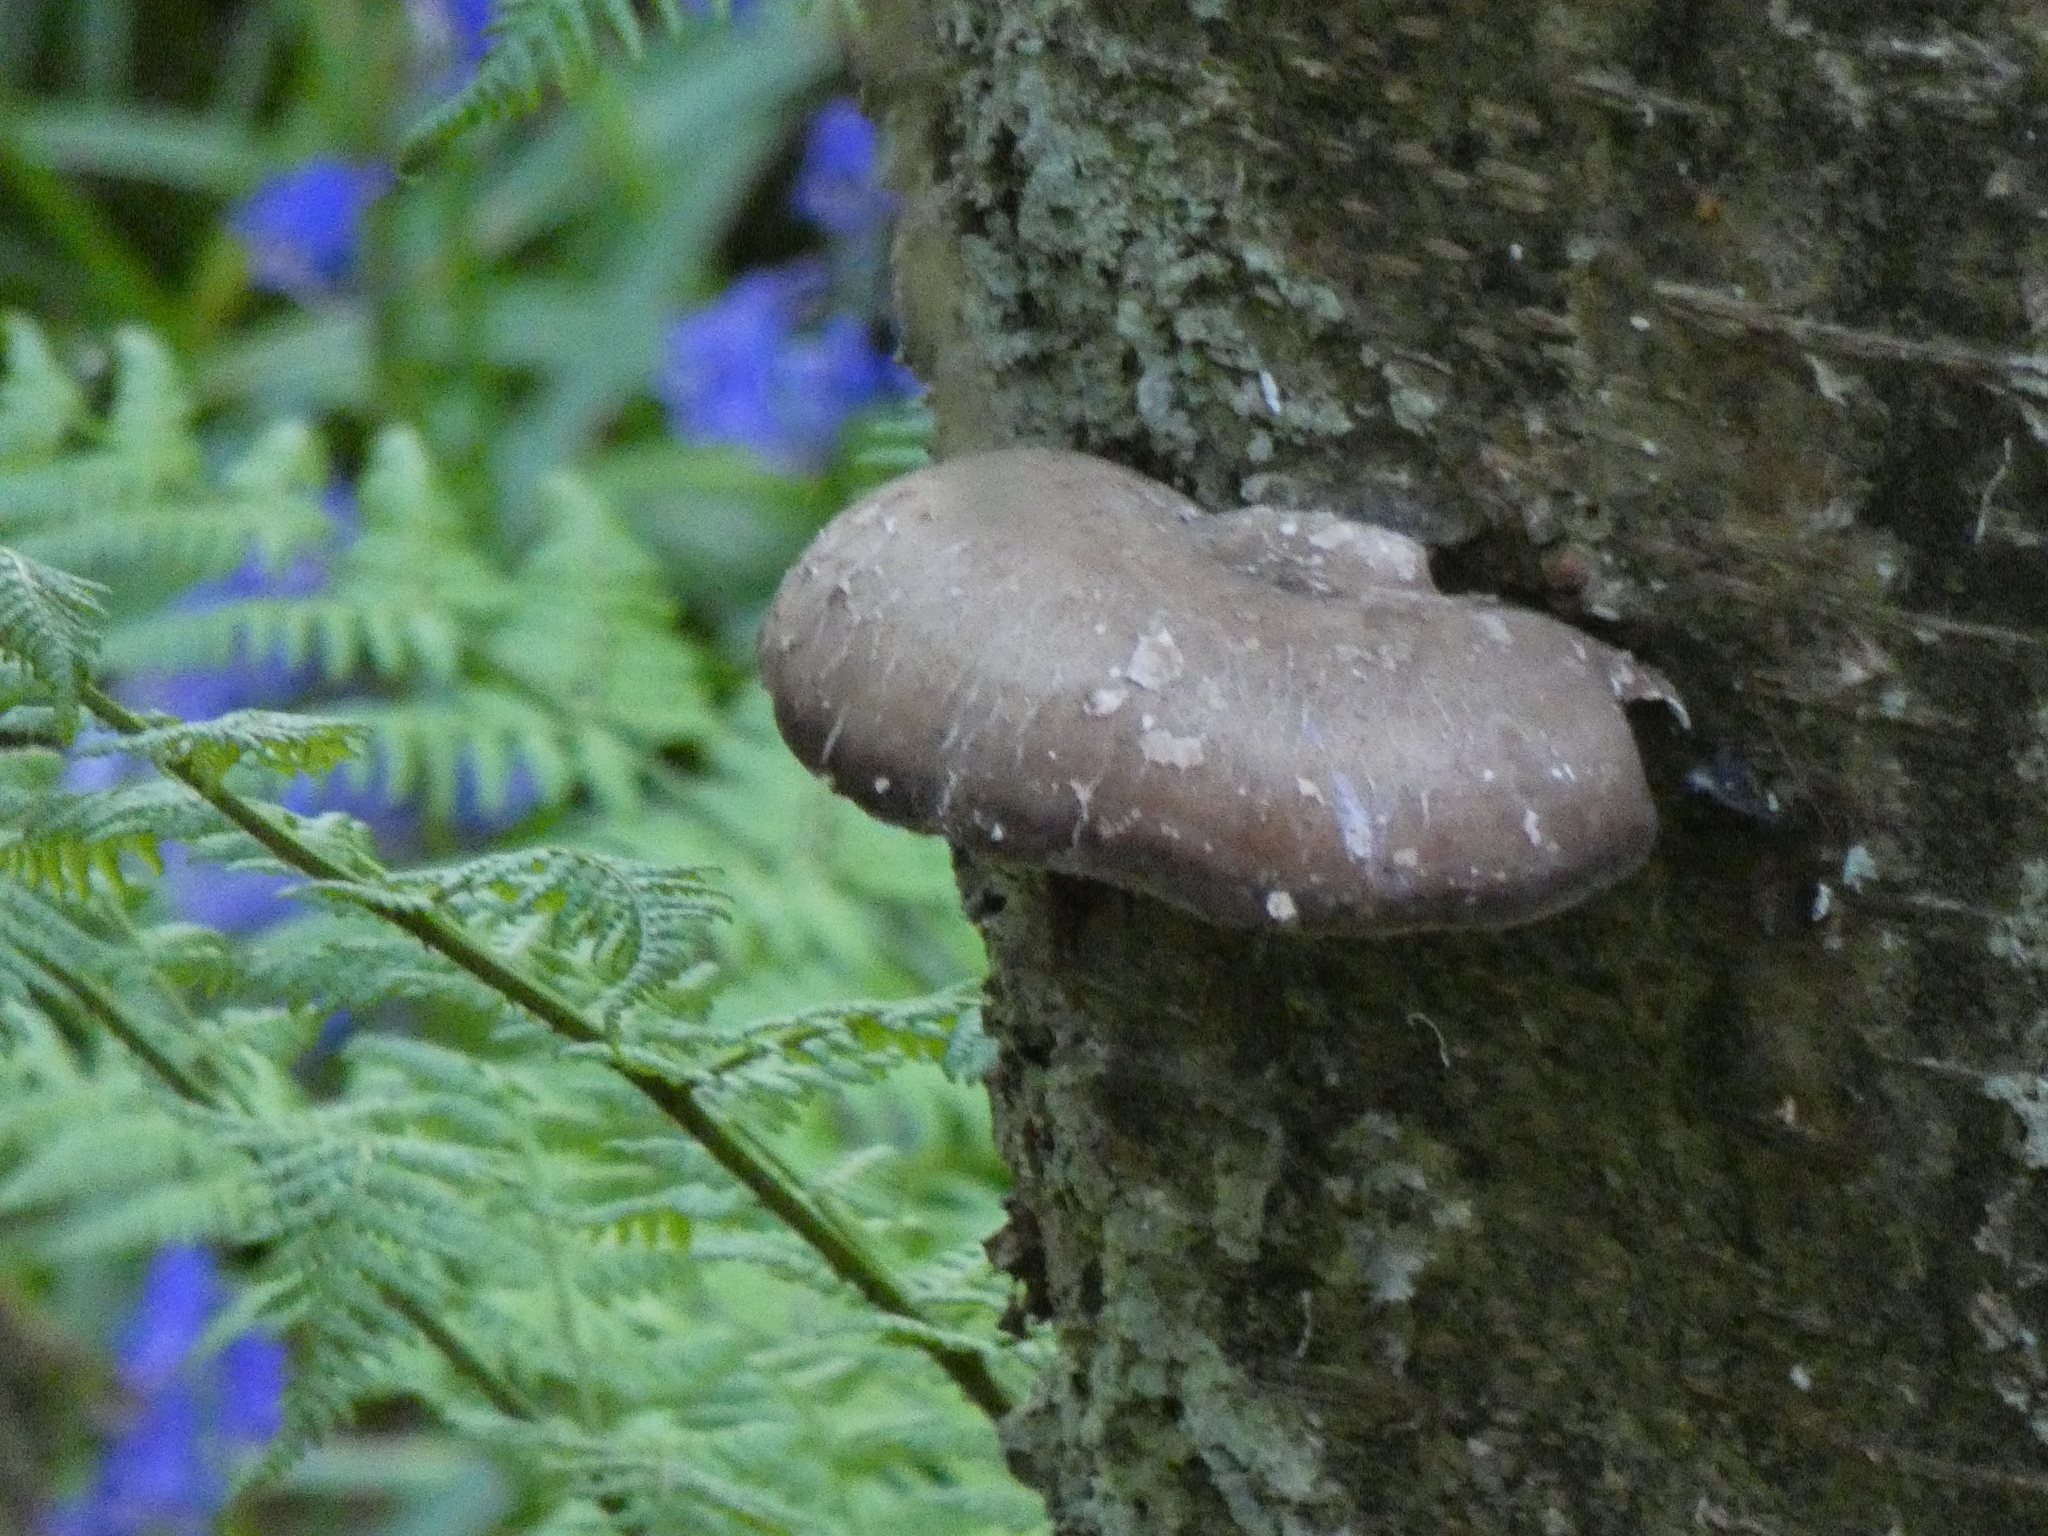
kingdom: Fungi
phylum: Basidiomycota
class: Agaricomycetes
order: Polyporales
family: Fomitopsidaceae
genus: Fomitopsis
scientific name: Fomitopsis betulina
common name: Birch polypore
